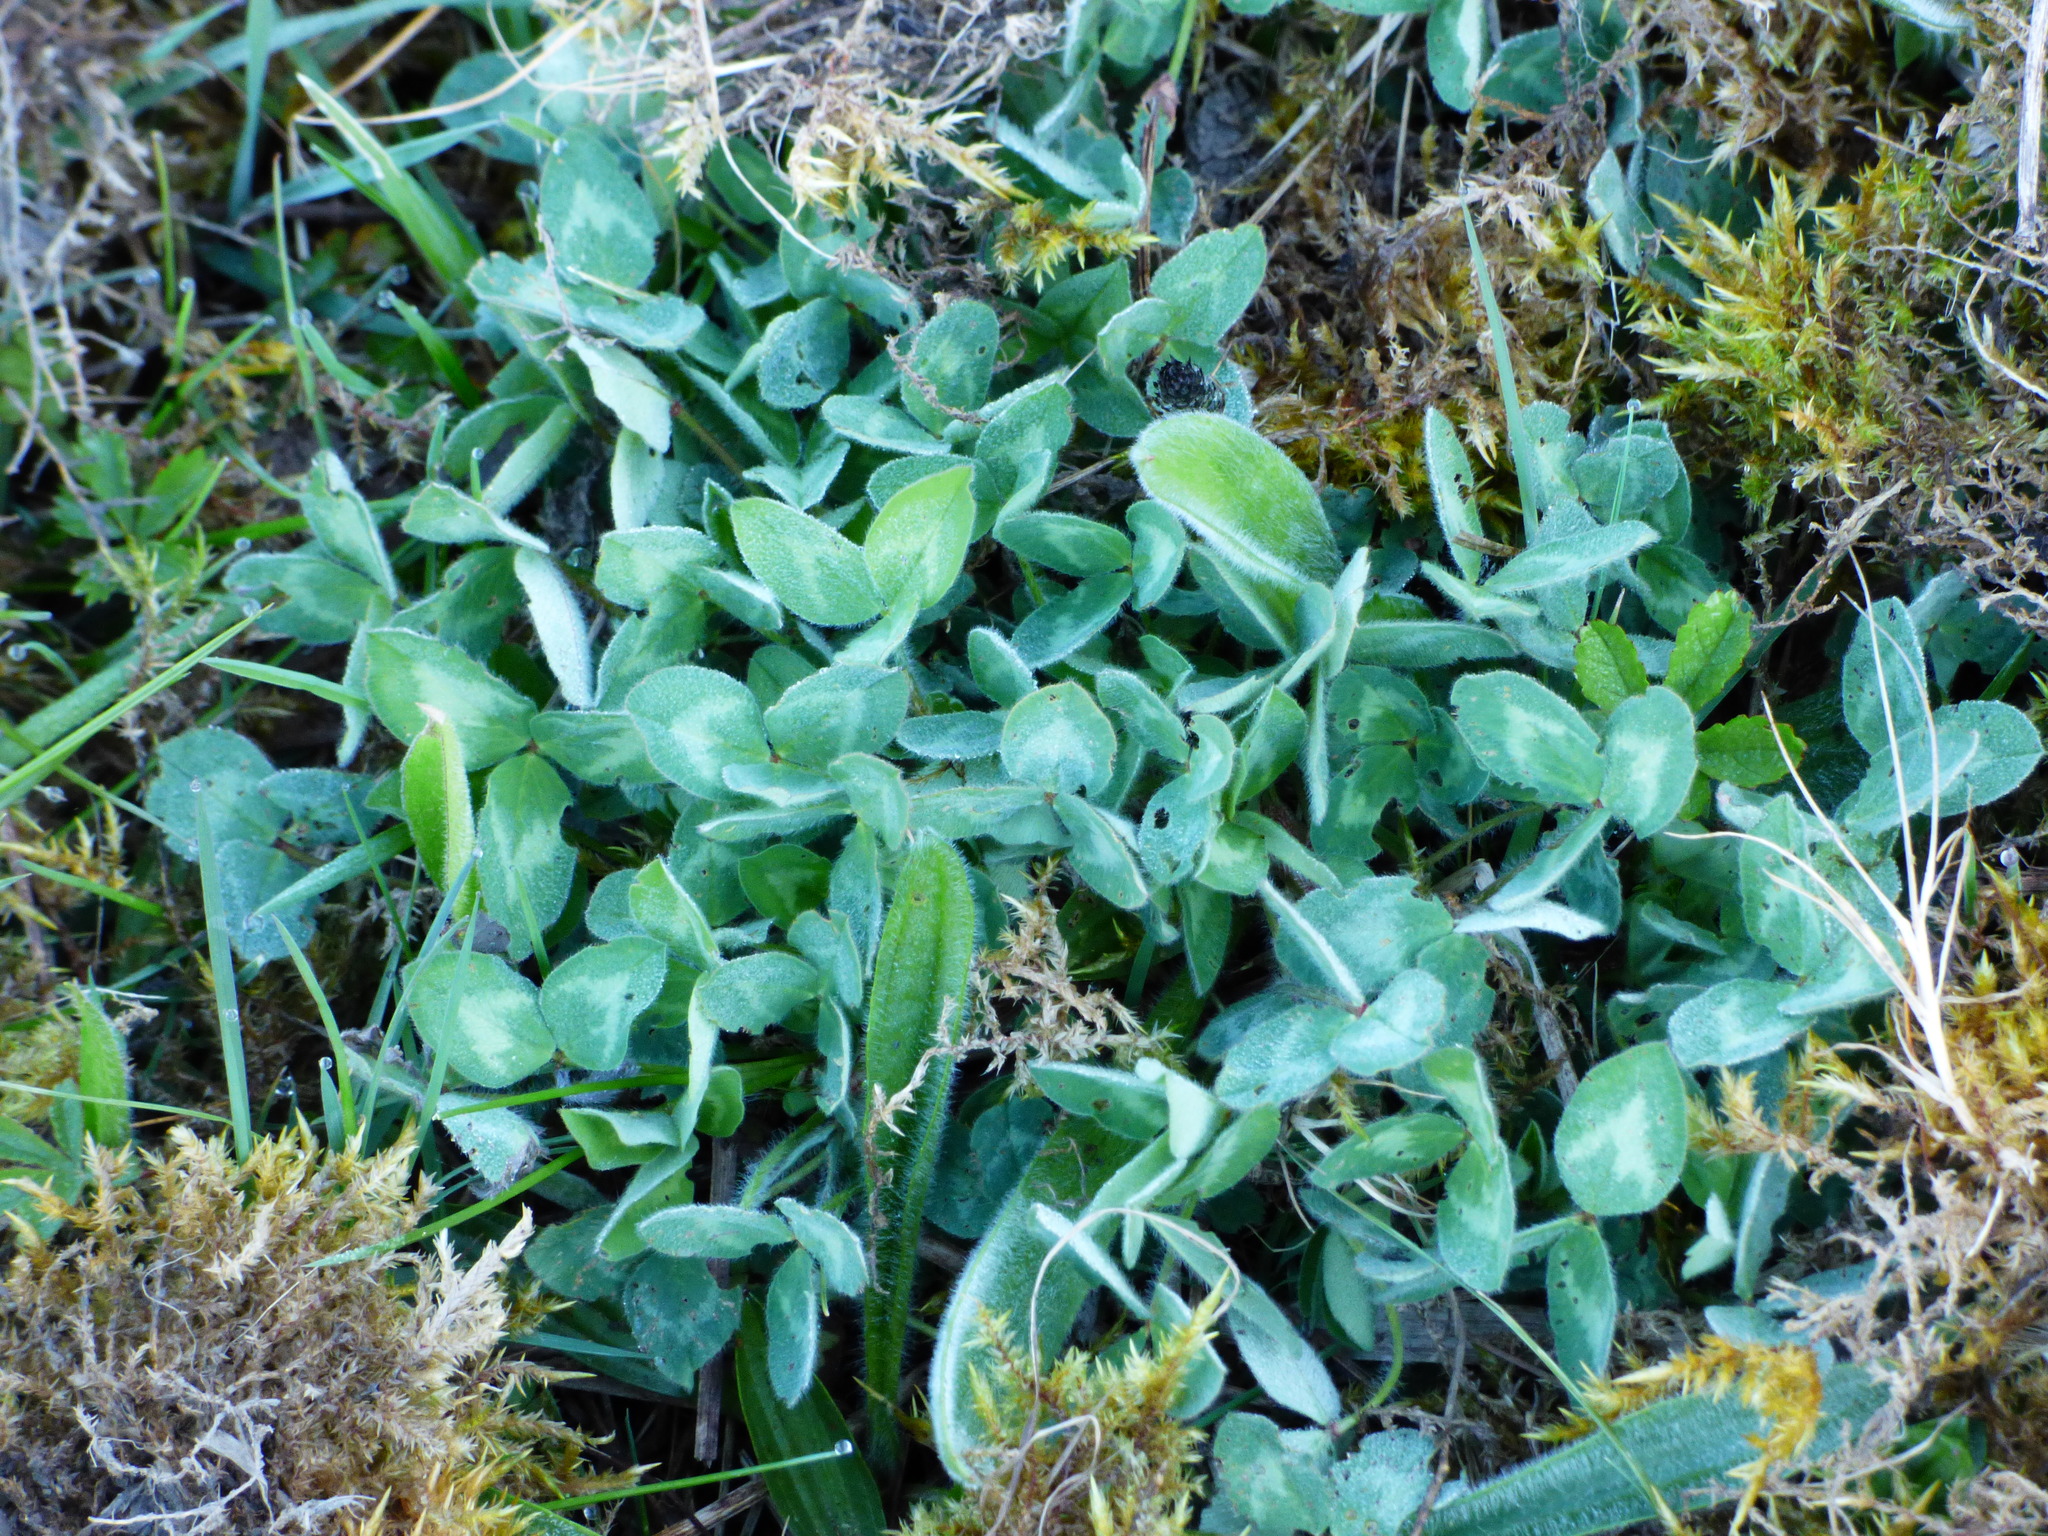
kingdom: Plantae
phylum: Tracheophyta
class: Magnoliopsida
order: Fabales
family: Fabaceae
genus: Trifolium
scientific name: Trifolium pratense
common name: Red clover
